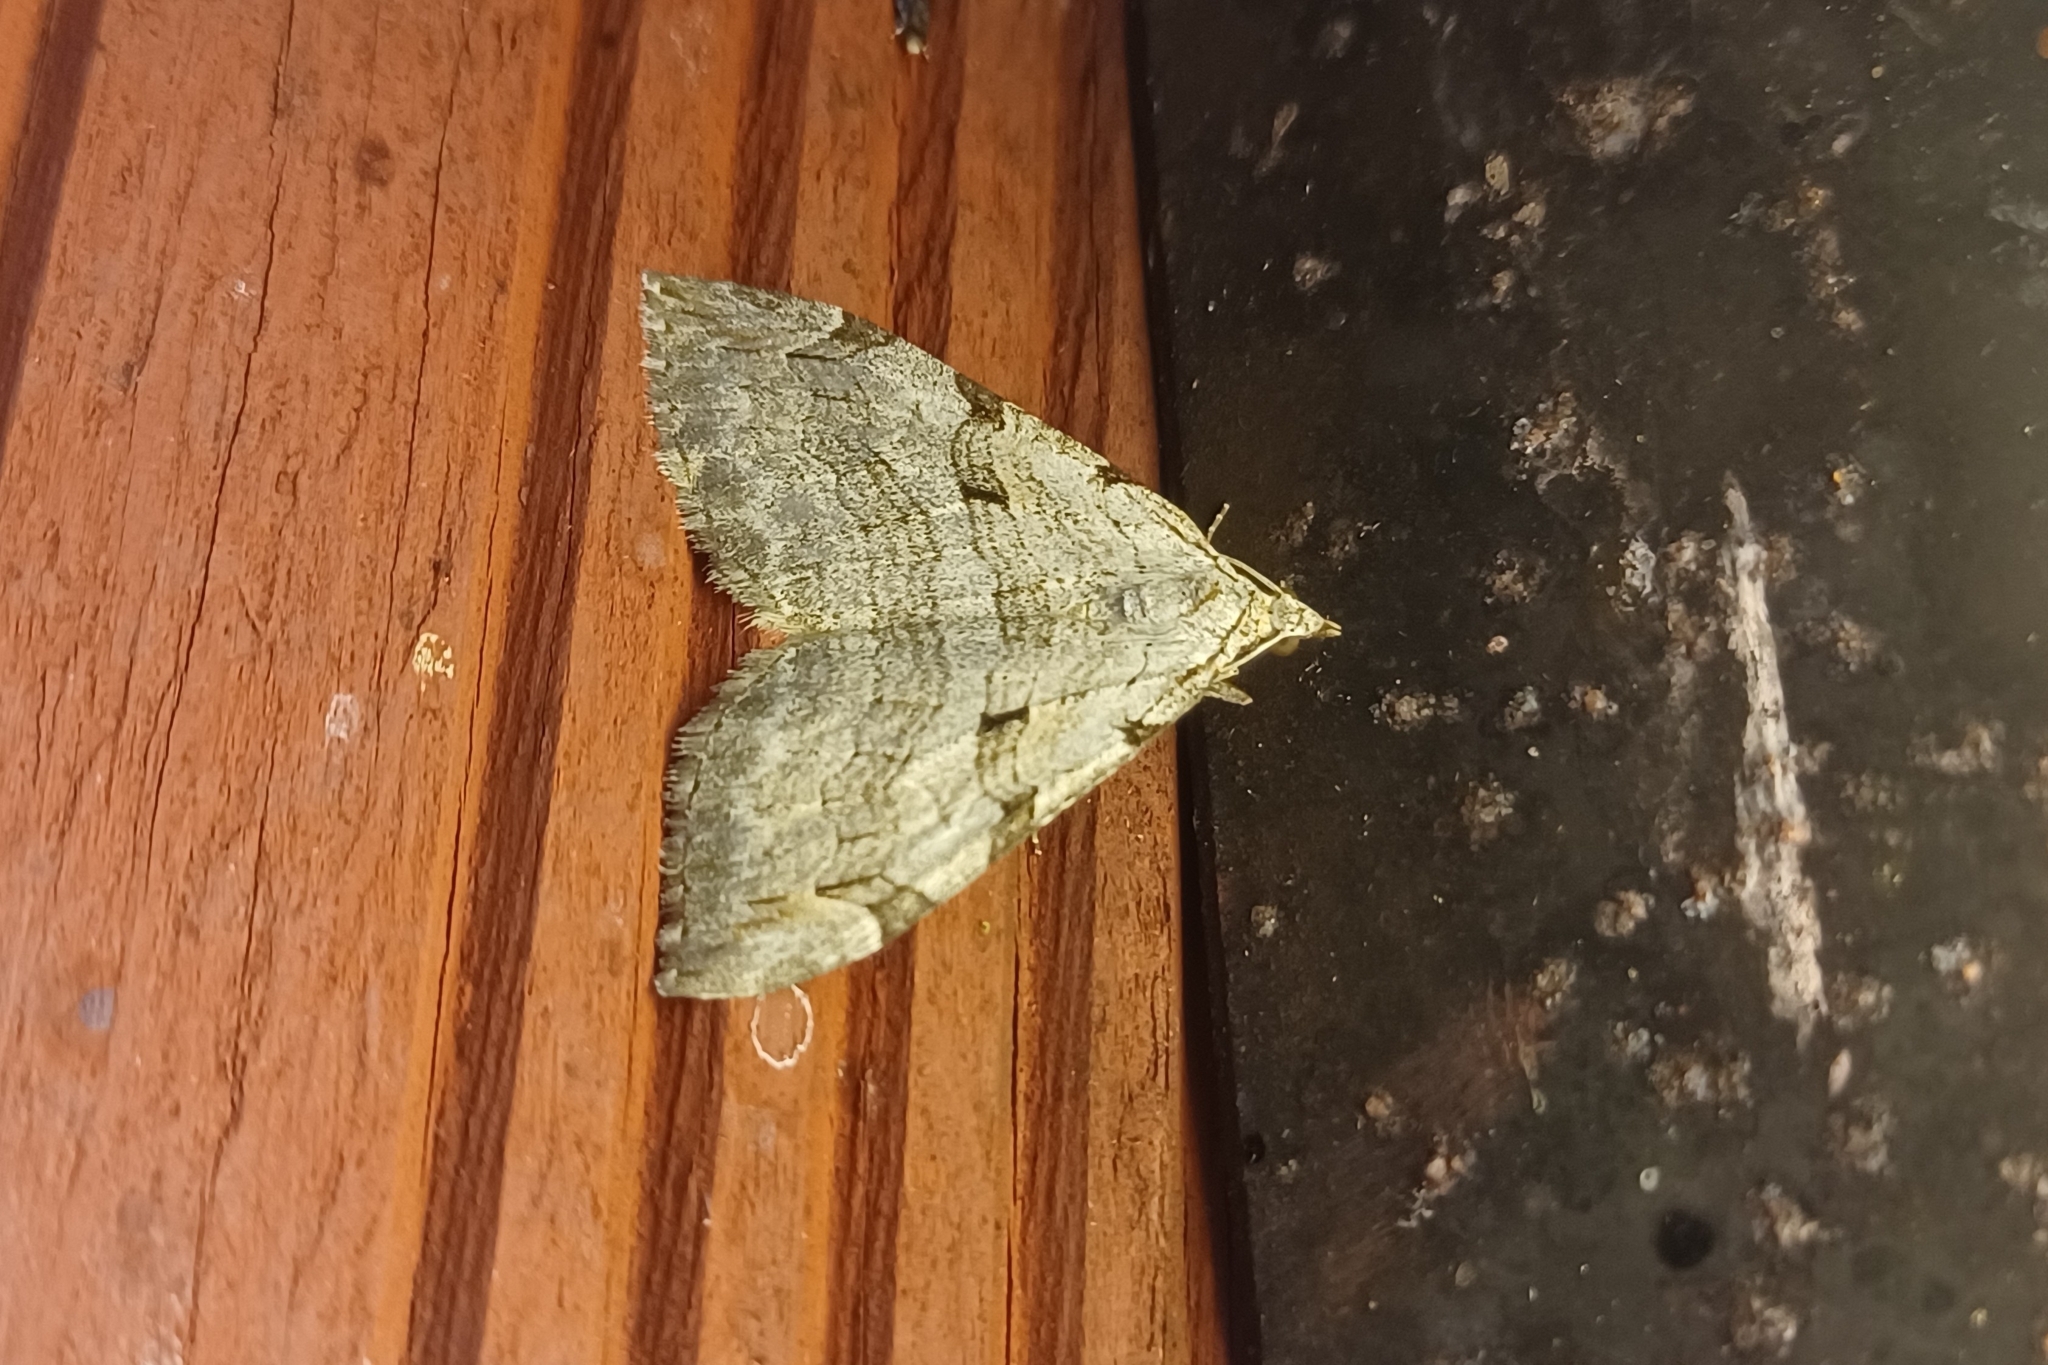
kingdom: Animalia
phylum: Arthropoda
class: Insecta
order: Lepidoptera
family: Geometridae
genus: Aplocera
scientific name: Aplocera plagiata
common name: Treble-bar
